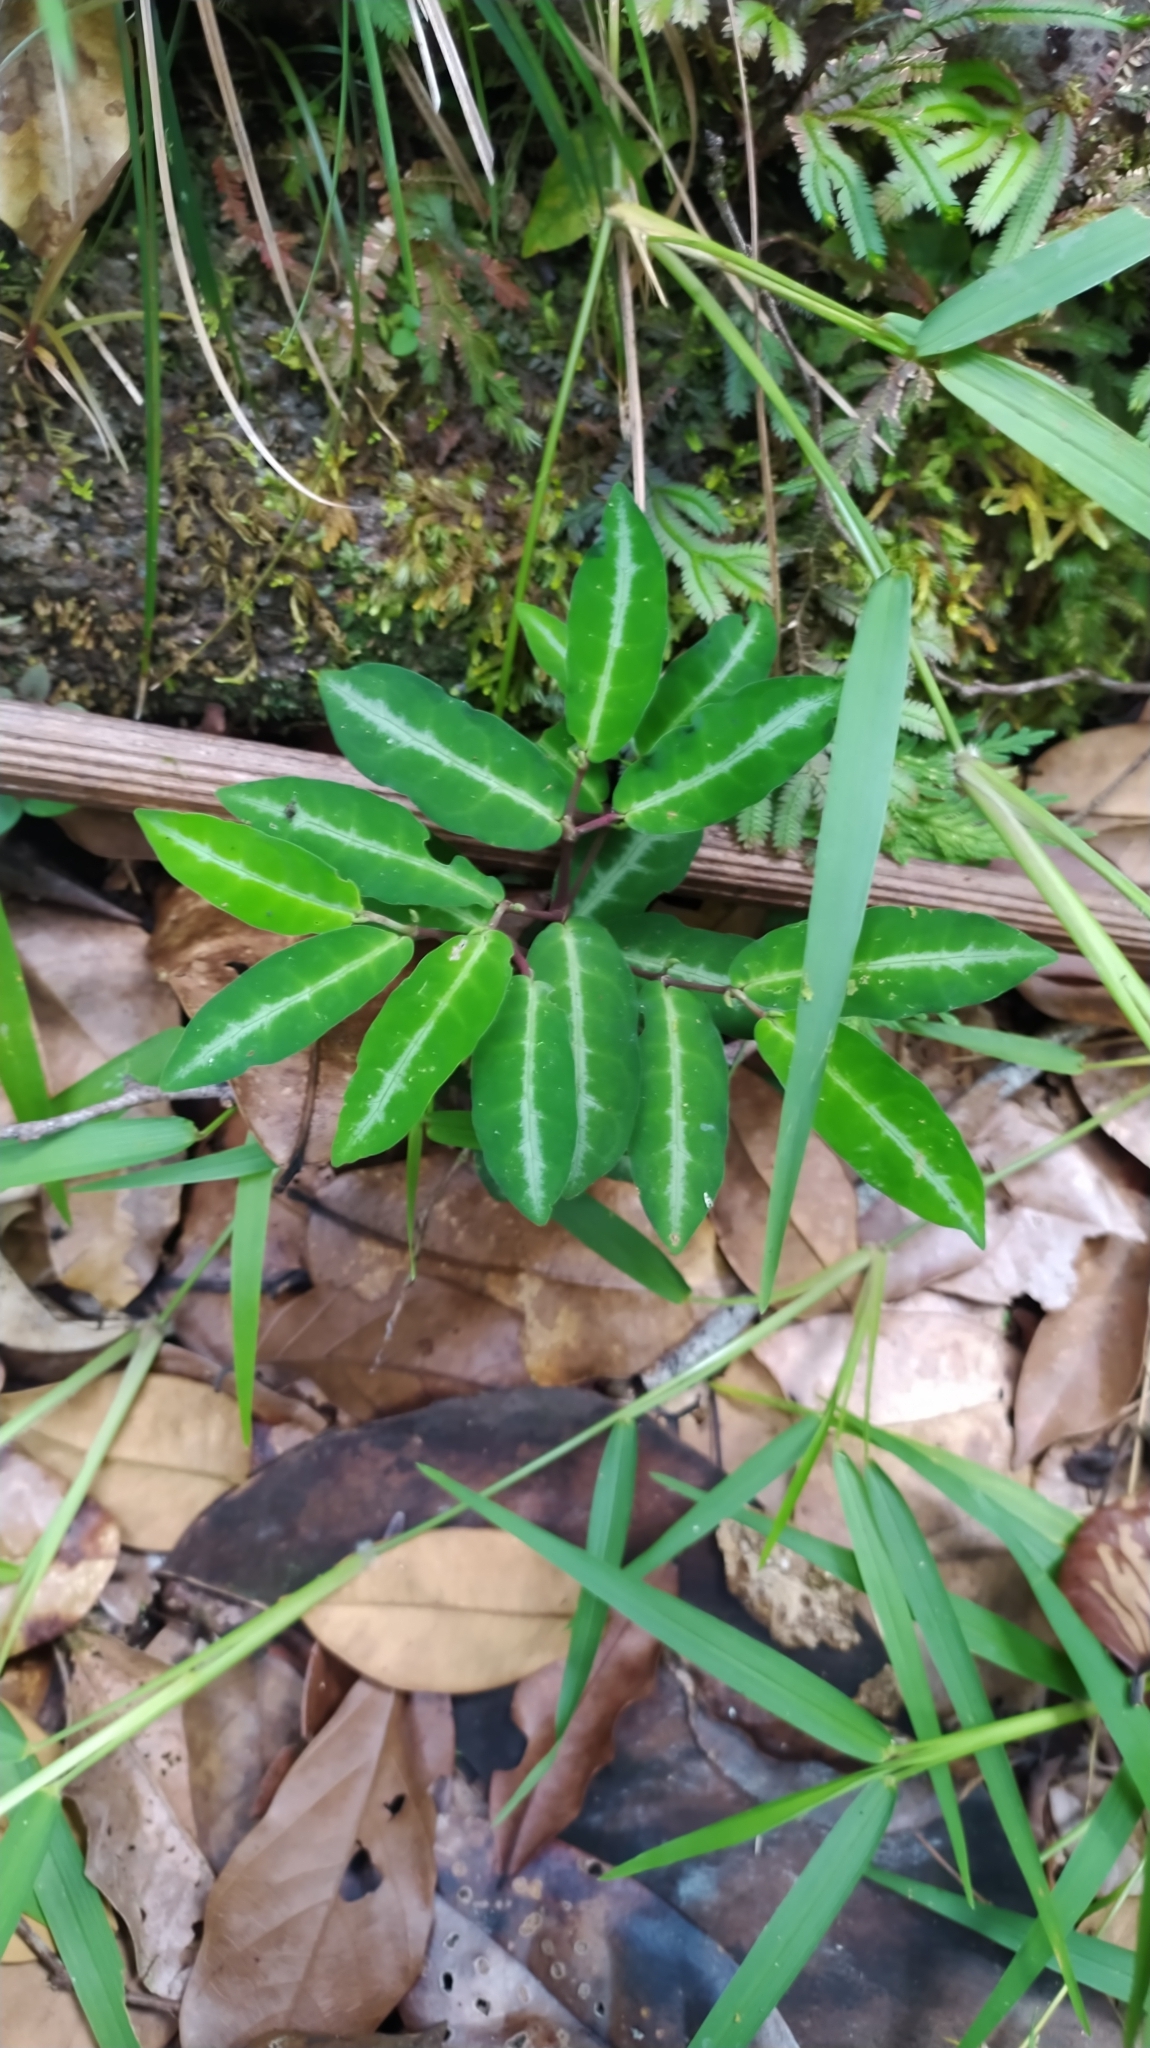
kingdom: Plantae
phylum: Tracheophyta
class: Magnoliopsida
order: Piperales
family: Piperaceae
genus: Piper
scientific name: Piper consanguineum
